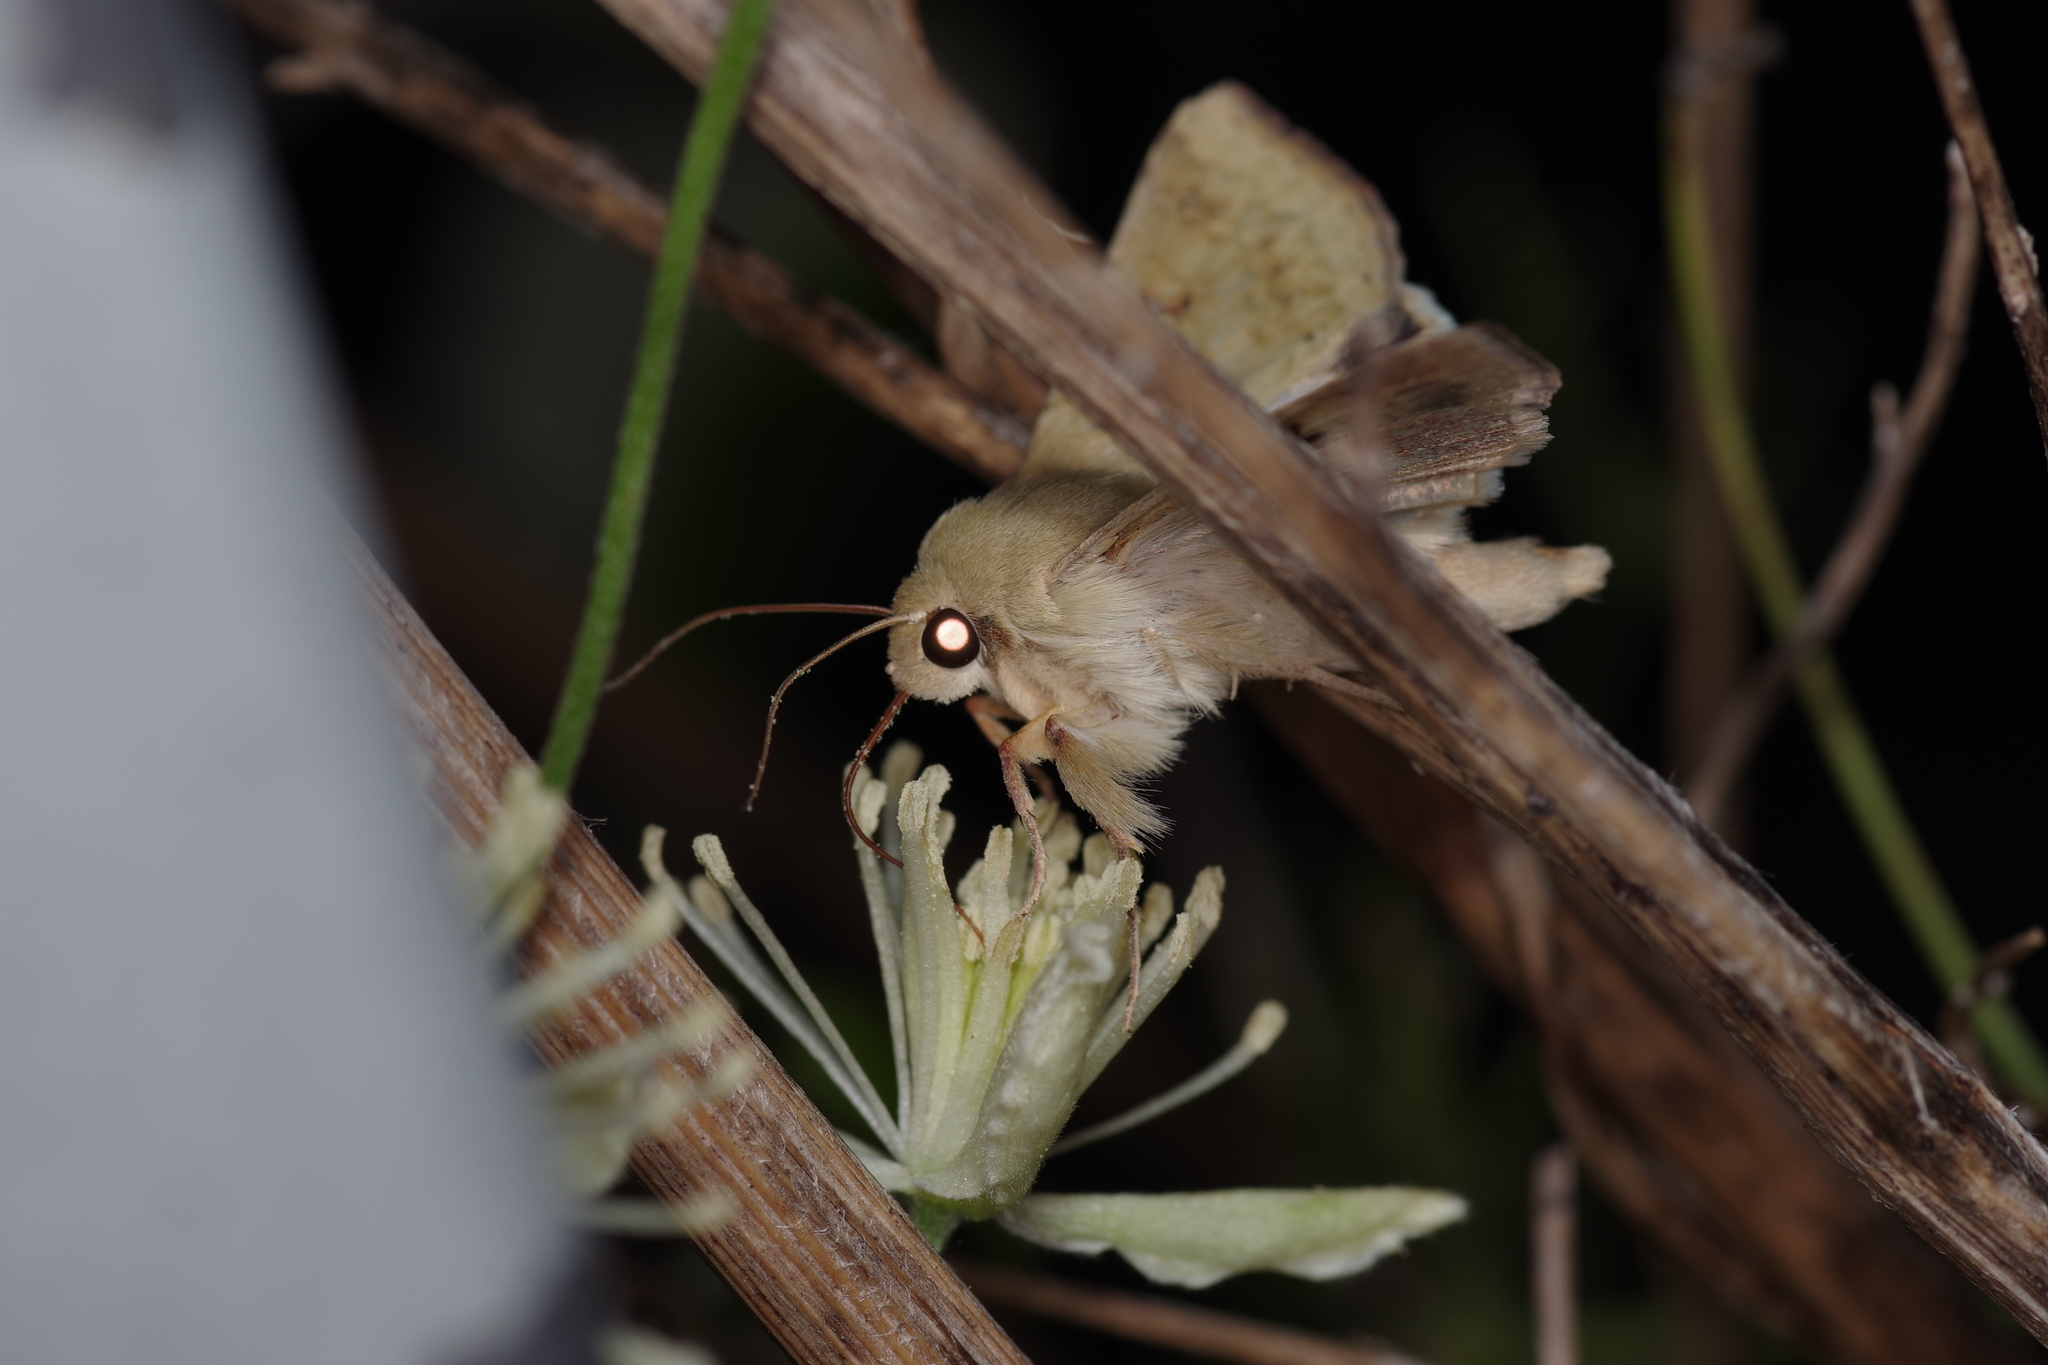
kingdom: Animalia
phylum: Arthropoda
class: Insecta
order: Lepidoptera
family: Noctuidae
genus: Helicoverpa
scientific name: Helicoverpa zea
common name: Bollworm
